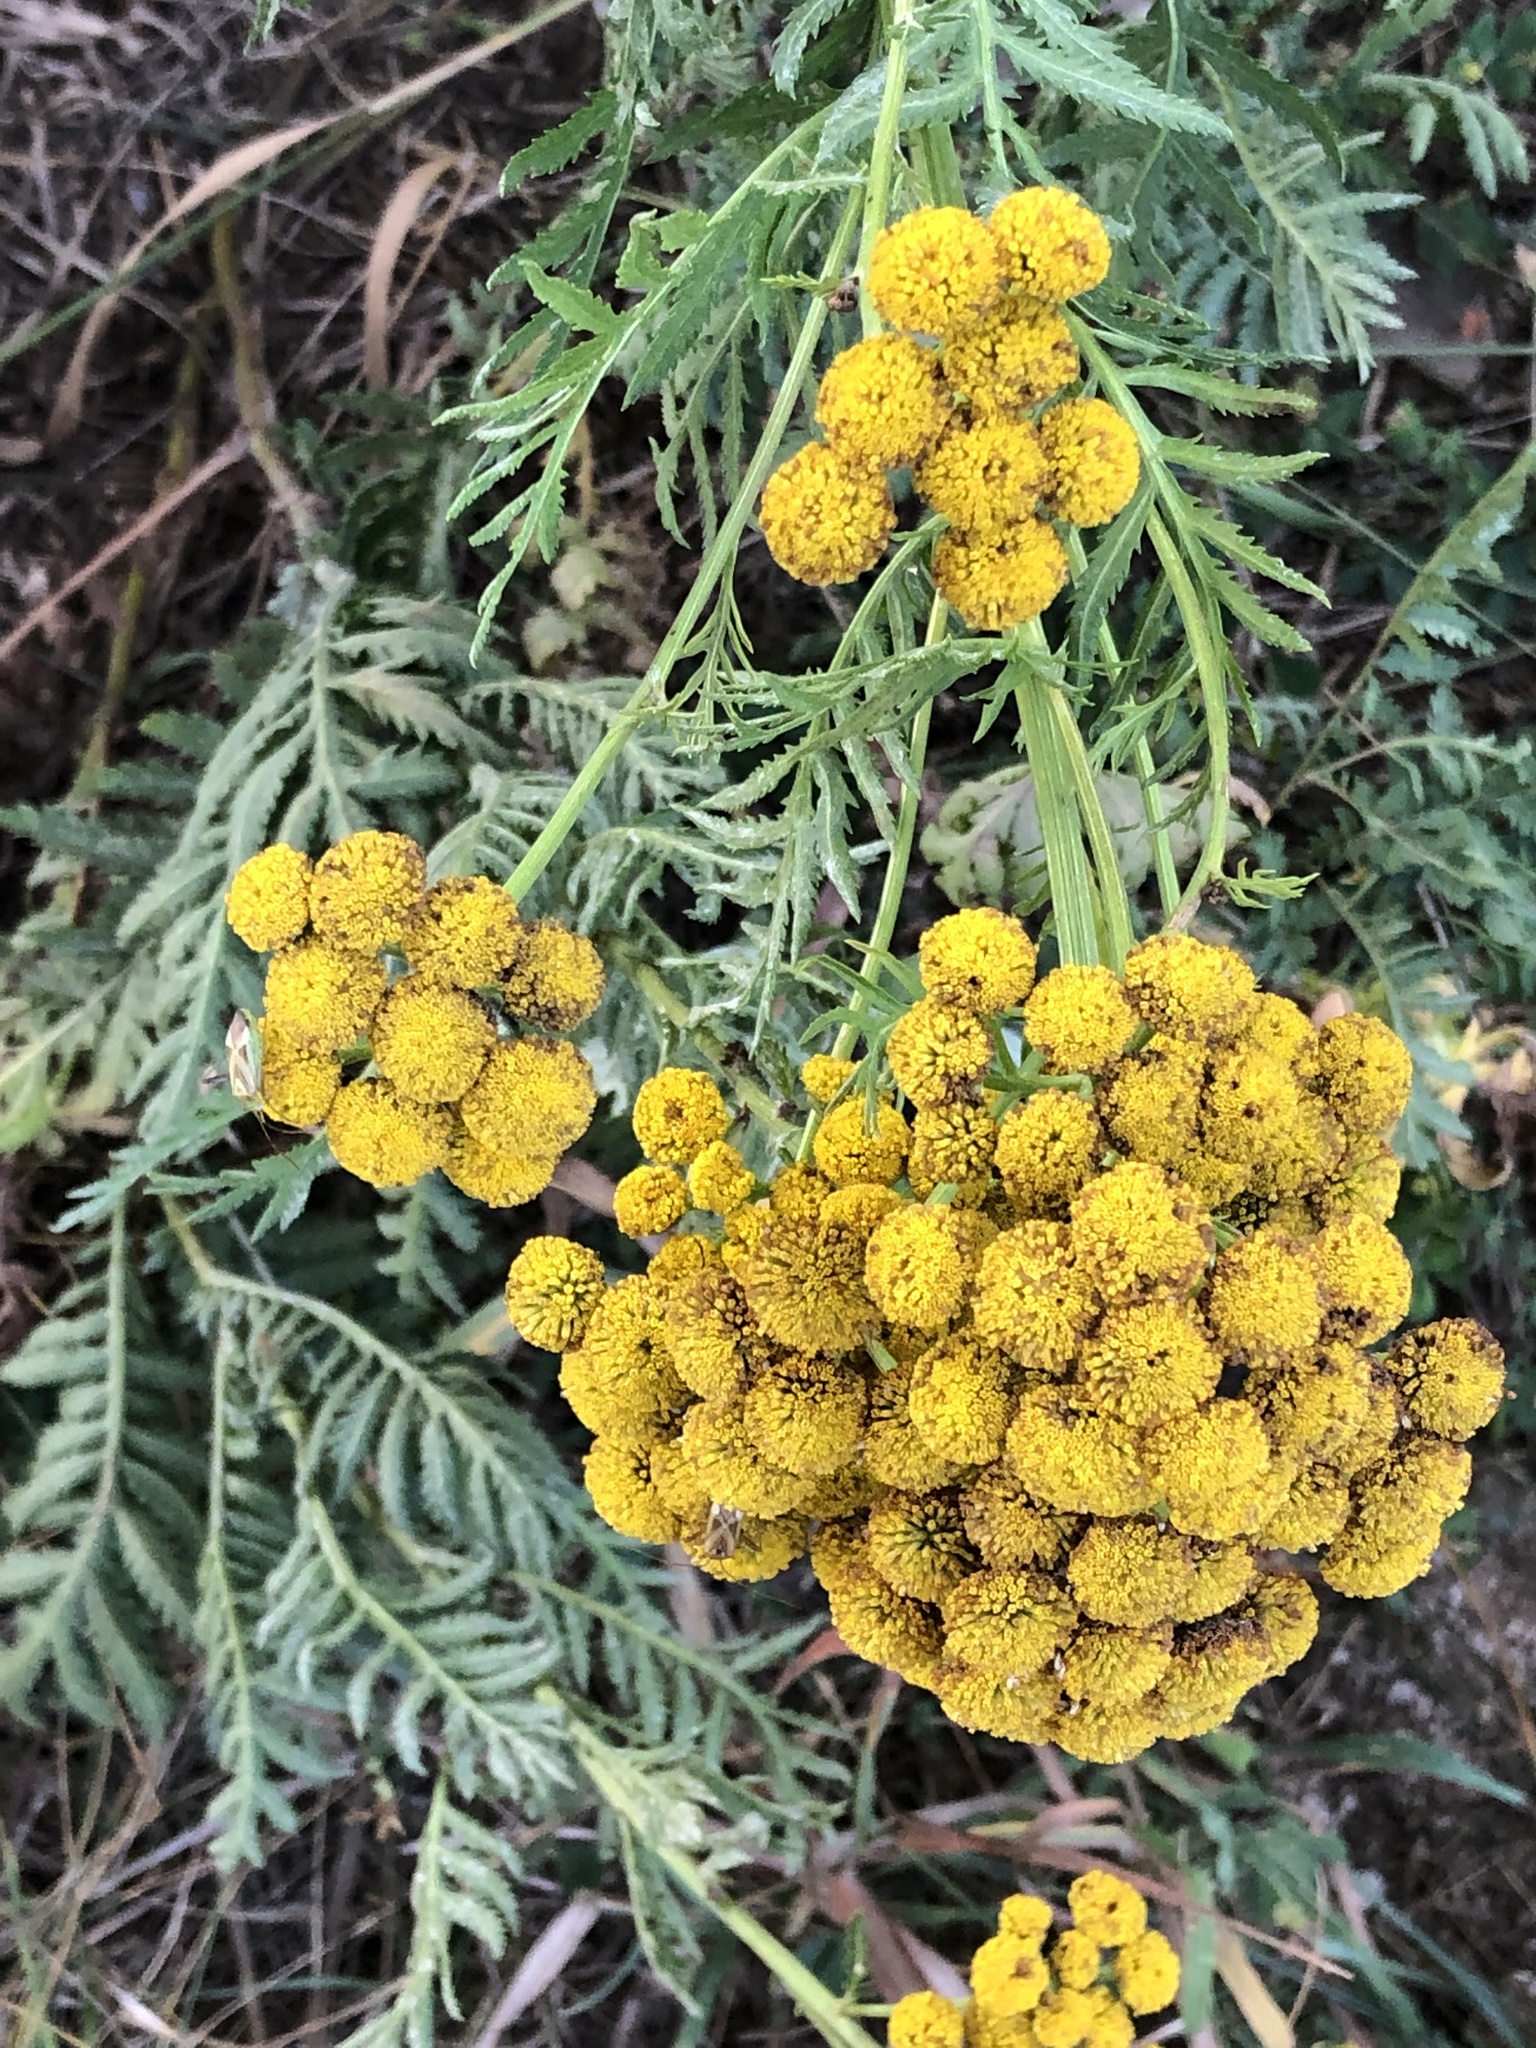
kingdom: Plantae
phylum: Tracheophyta
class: Magnoliopsida
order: Asterales
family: Asteraceae
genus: Tanacetum
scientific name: Tanacetum vulgare
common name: Common tansy
